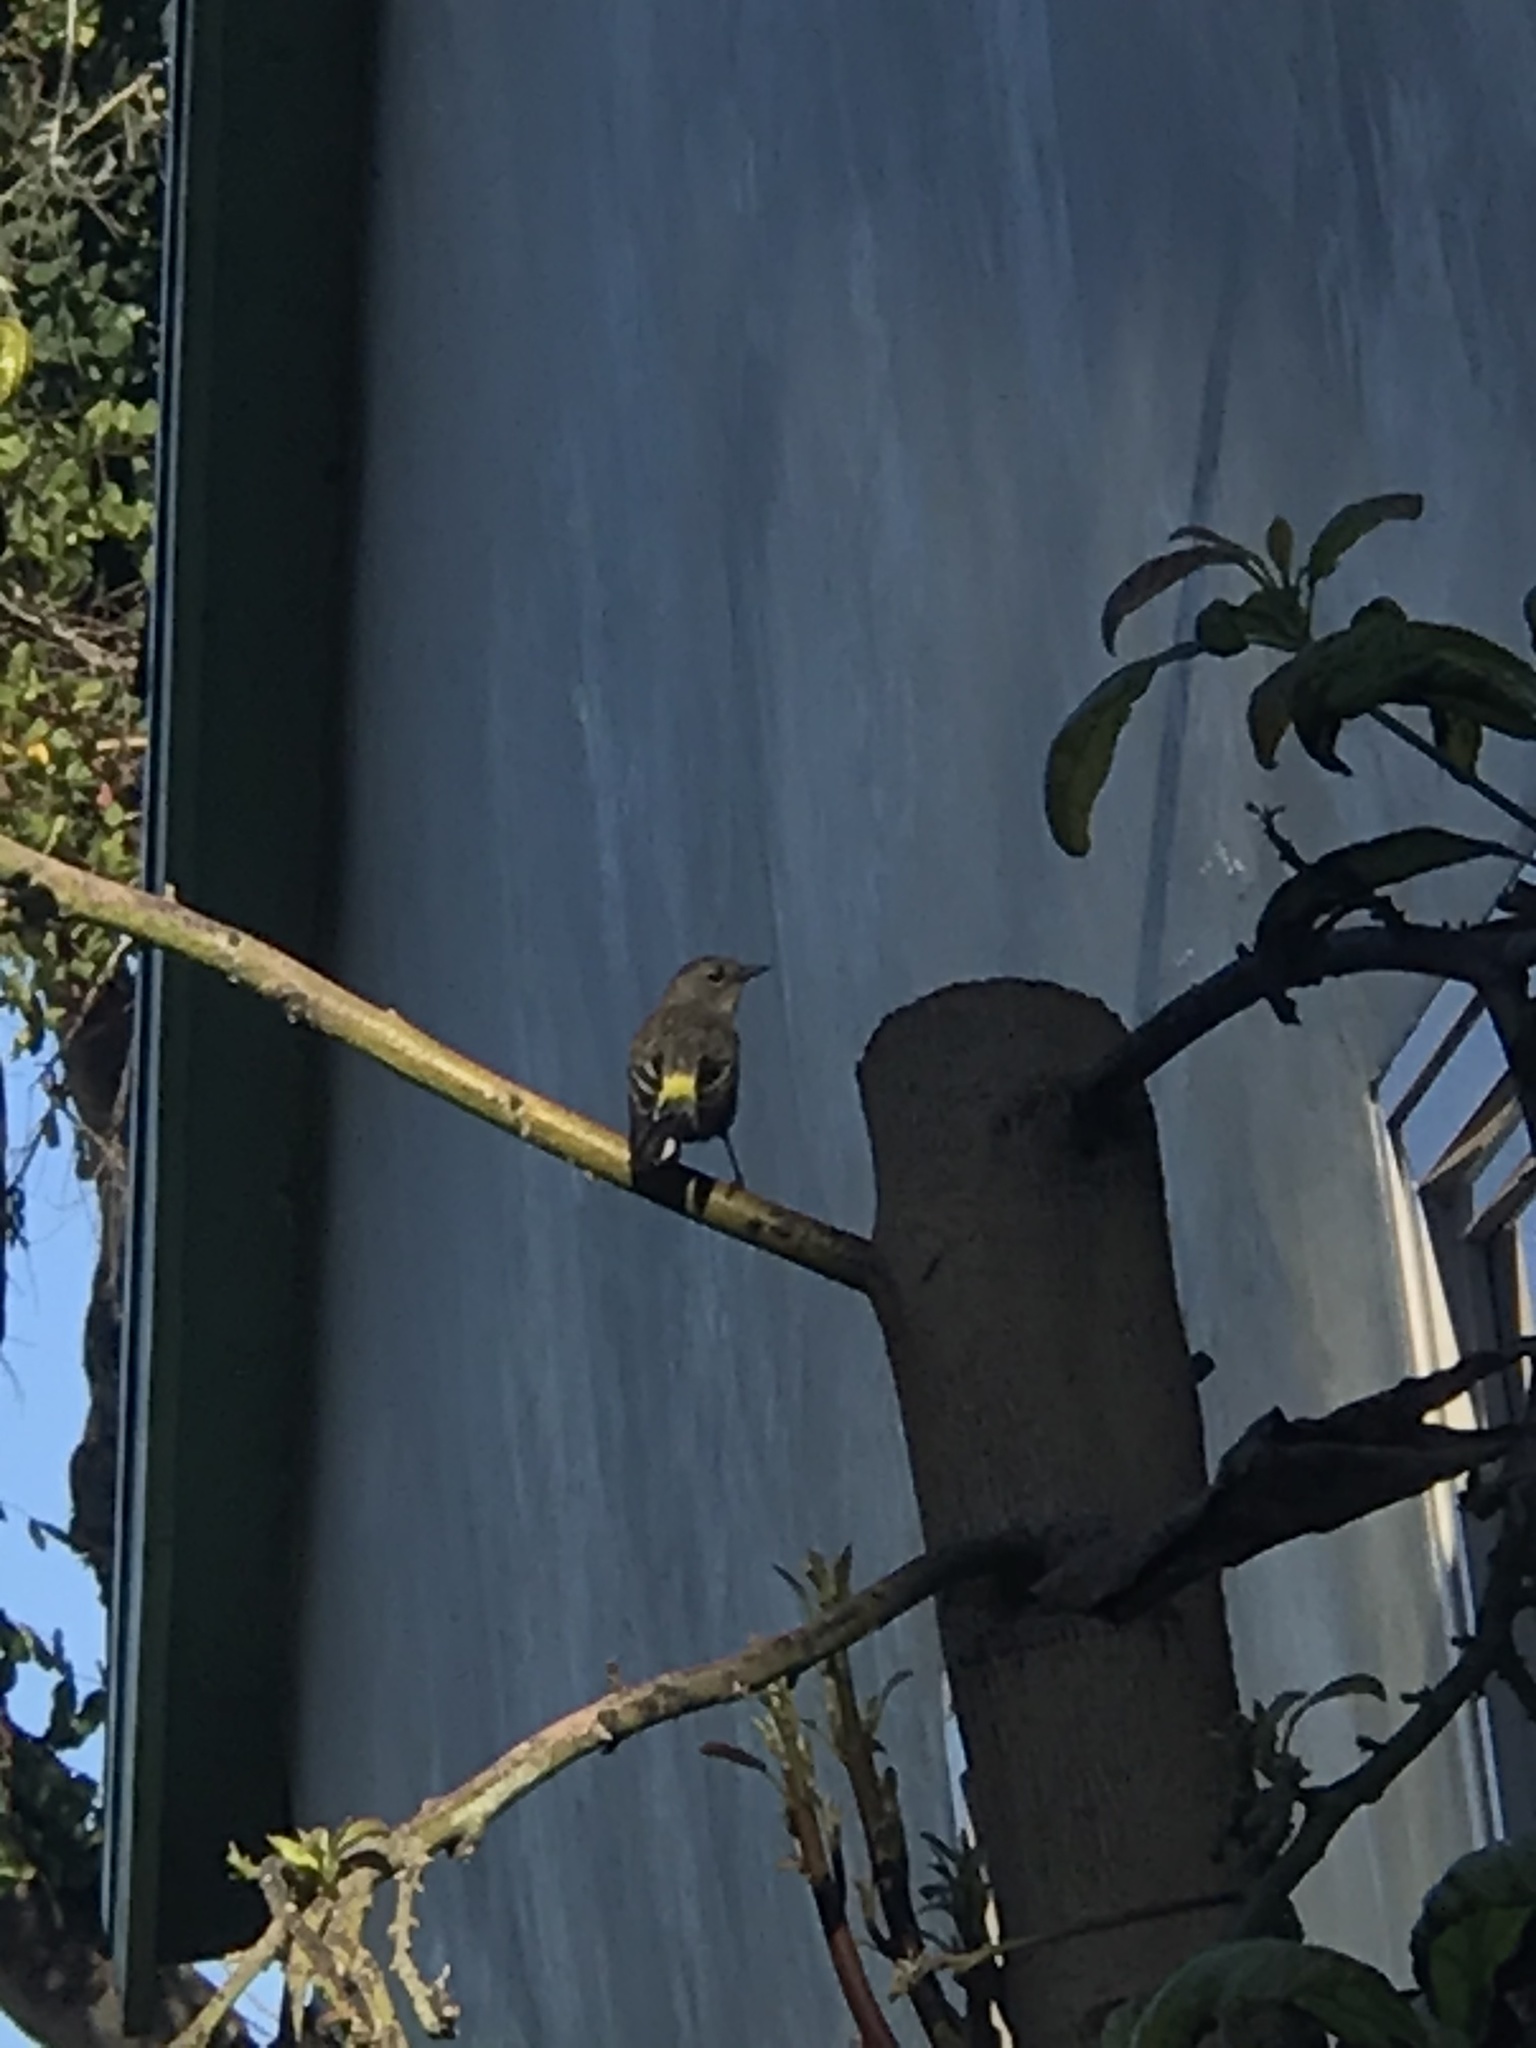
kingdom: Animalia
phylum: Chordata
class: Aves
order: Passeriformes
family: Parulidae
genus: Setophaga
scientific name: Setophaga coronata
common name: Myrtle warbler
